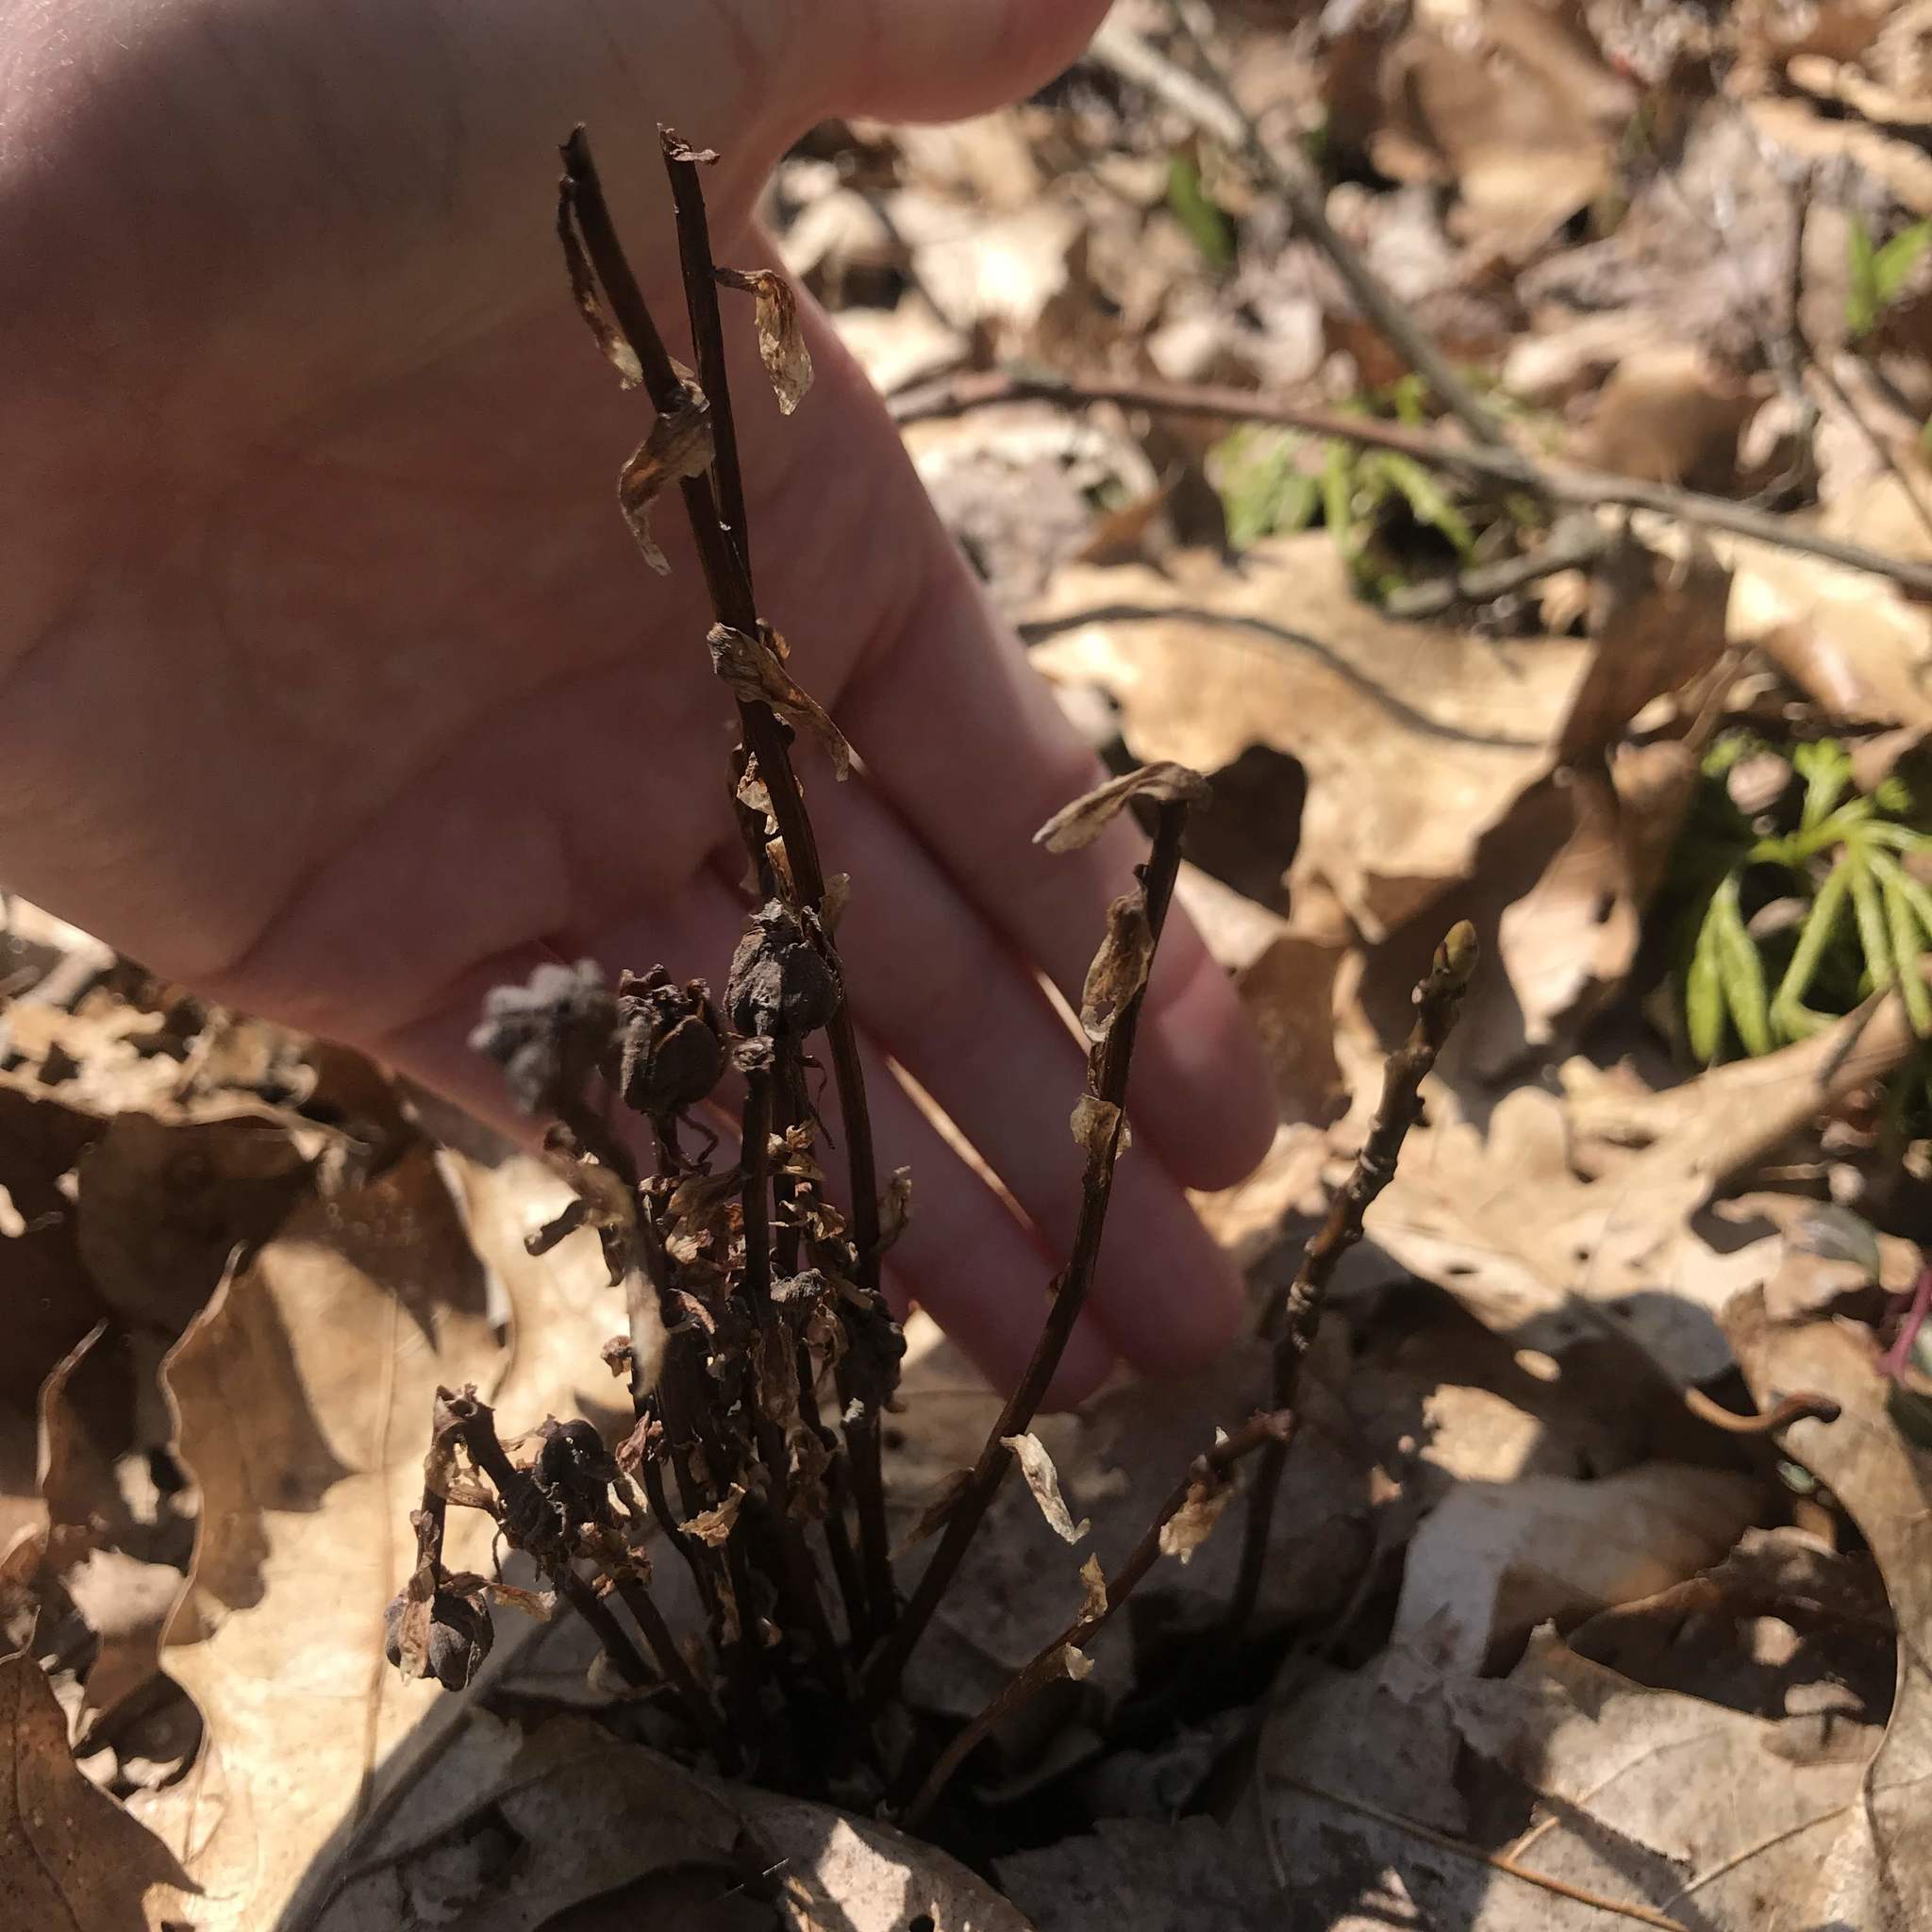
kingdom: Plantae
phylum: Tracheophyta
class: Magnoliopsida
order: Ericales
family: Ericaceae
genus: Monotropa
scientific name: Monotropa uniflora
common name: Convulsion root
